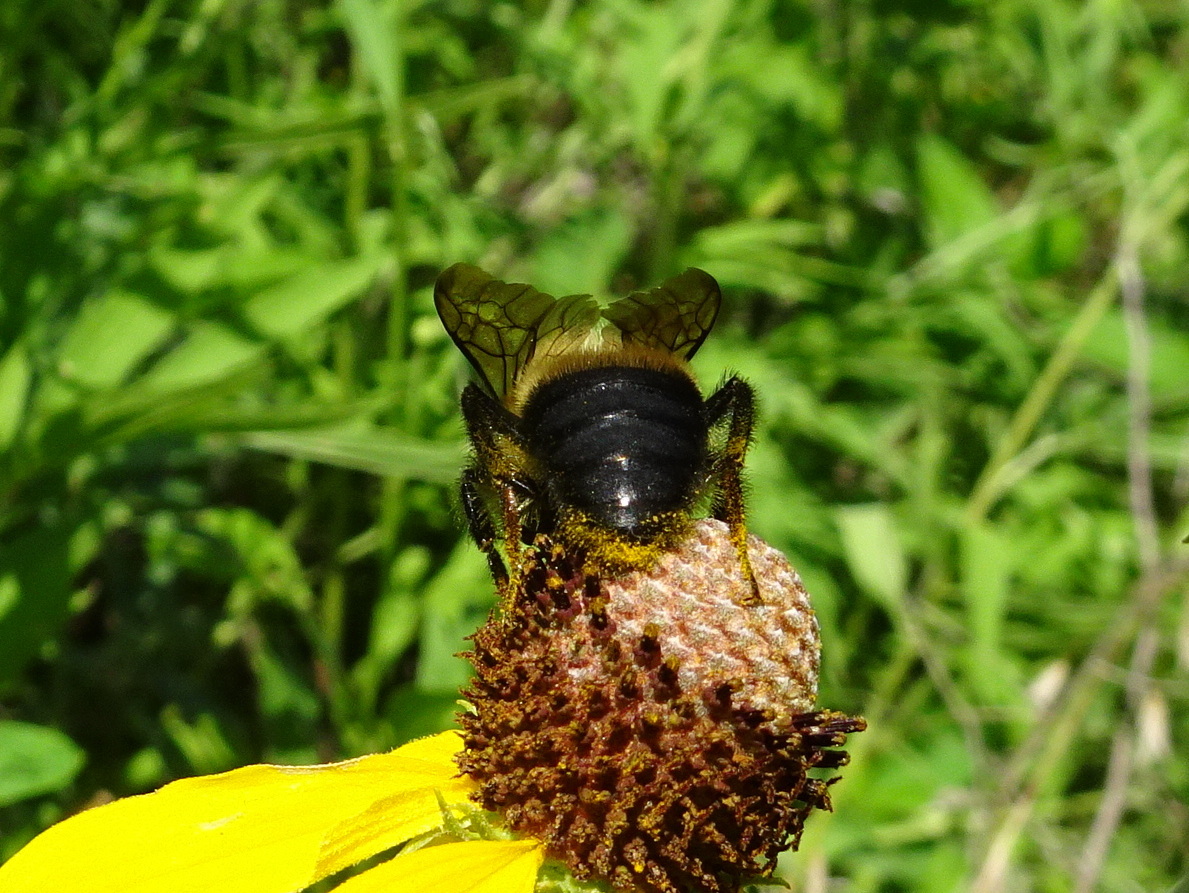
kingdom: Animalia
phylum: Arthropoda
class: Insecta
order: Hymenoptera
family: Apidae
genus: Bombus
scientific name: Bombus griseocollis
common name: Brown-belted bumble bee
